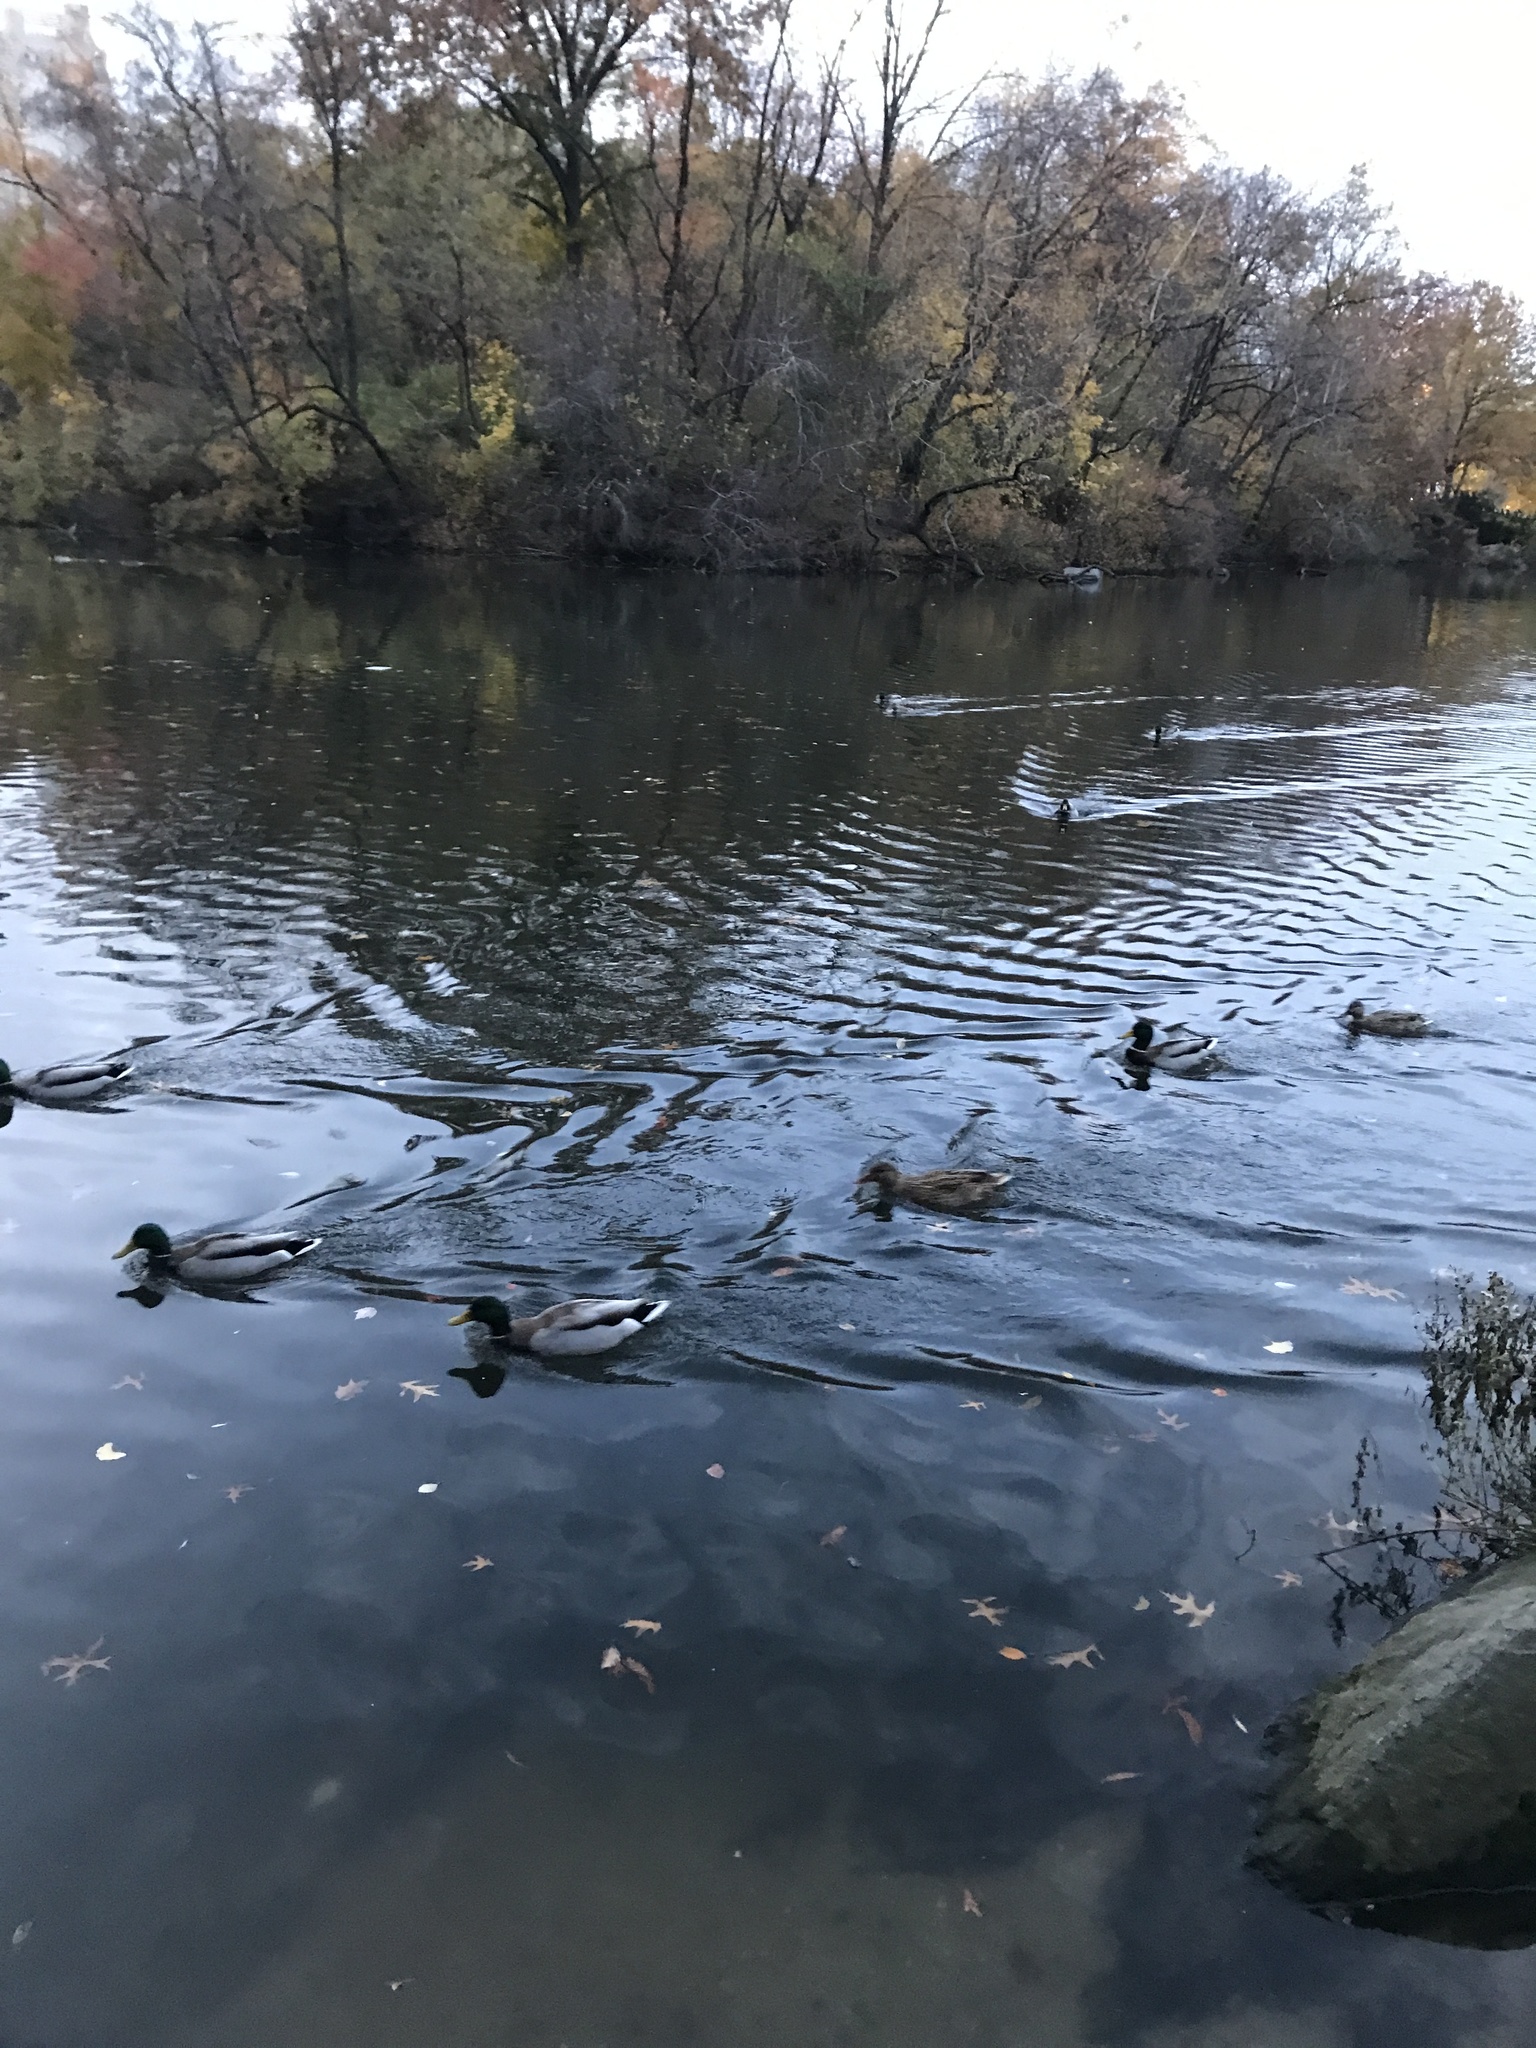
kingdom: Animalia
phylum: Chordata
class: Aves
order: Anseriformes
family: Anatidae
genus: Anas
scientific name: Anas platyrhynchos
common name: Mallard
